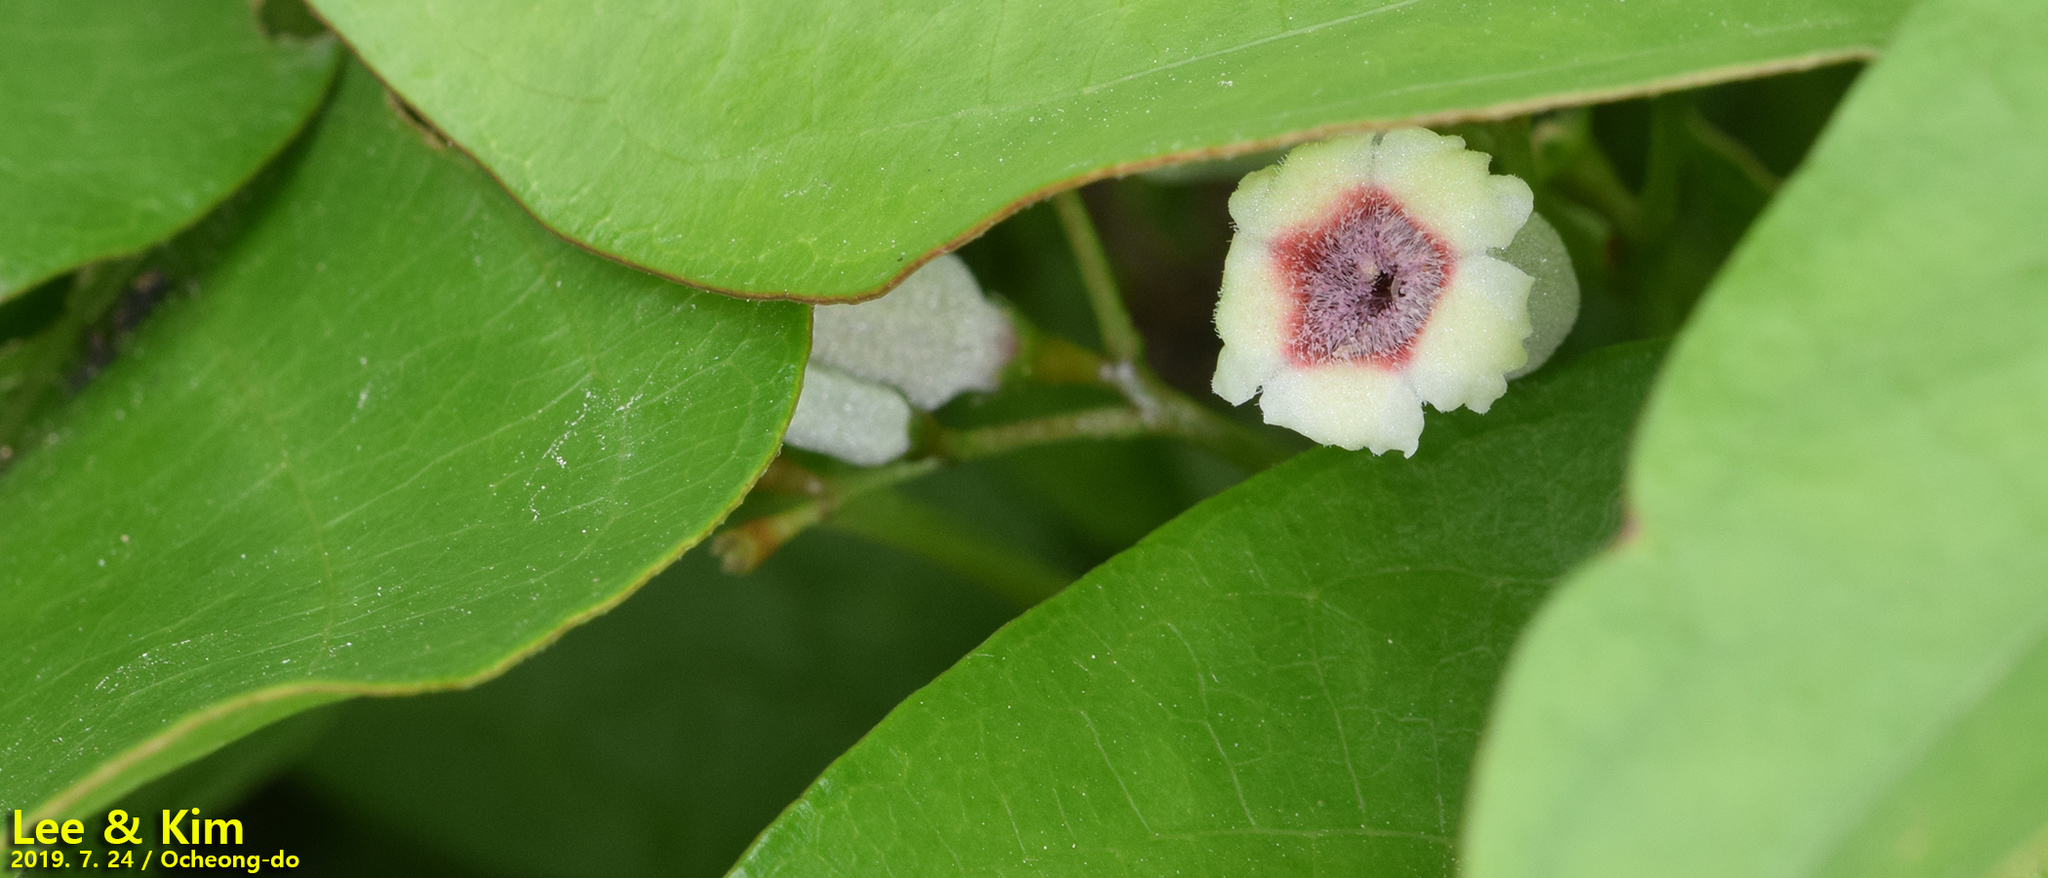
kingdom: Plantae
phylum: Tracheophyta
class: Magnoliopsida
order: Gentianales
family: Rubiaceae
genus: Paederia
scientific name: Paederia foetida
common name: Stinkvine
